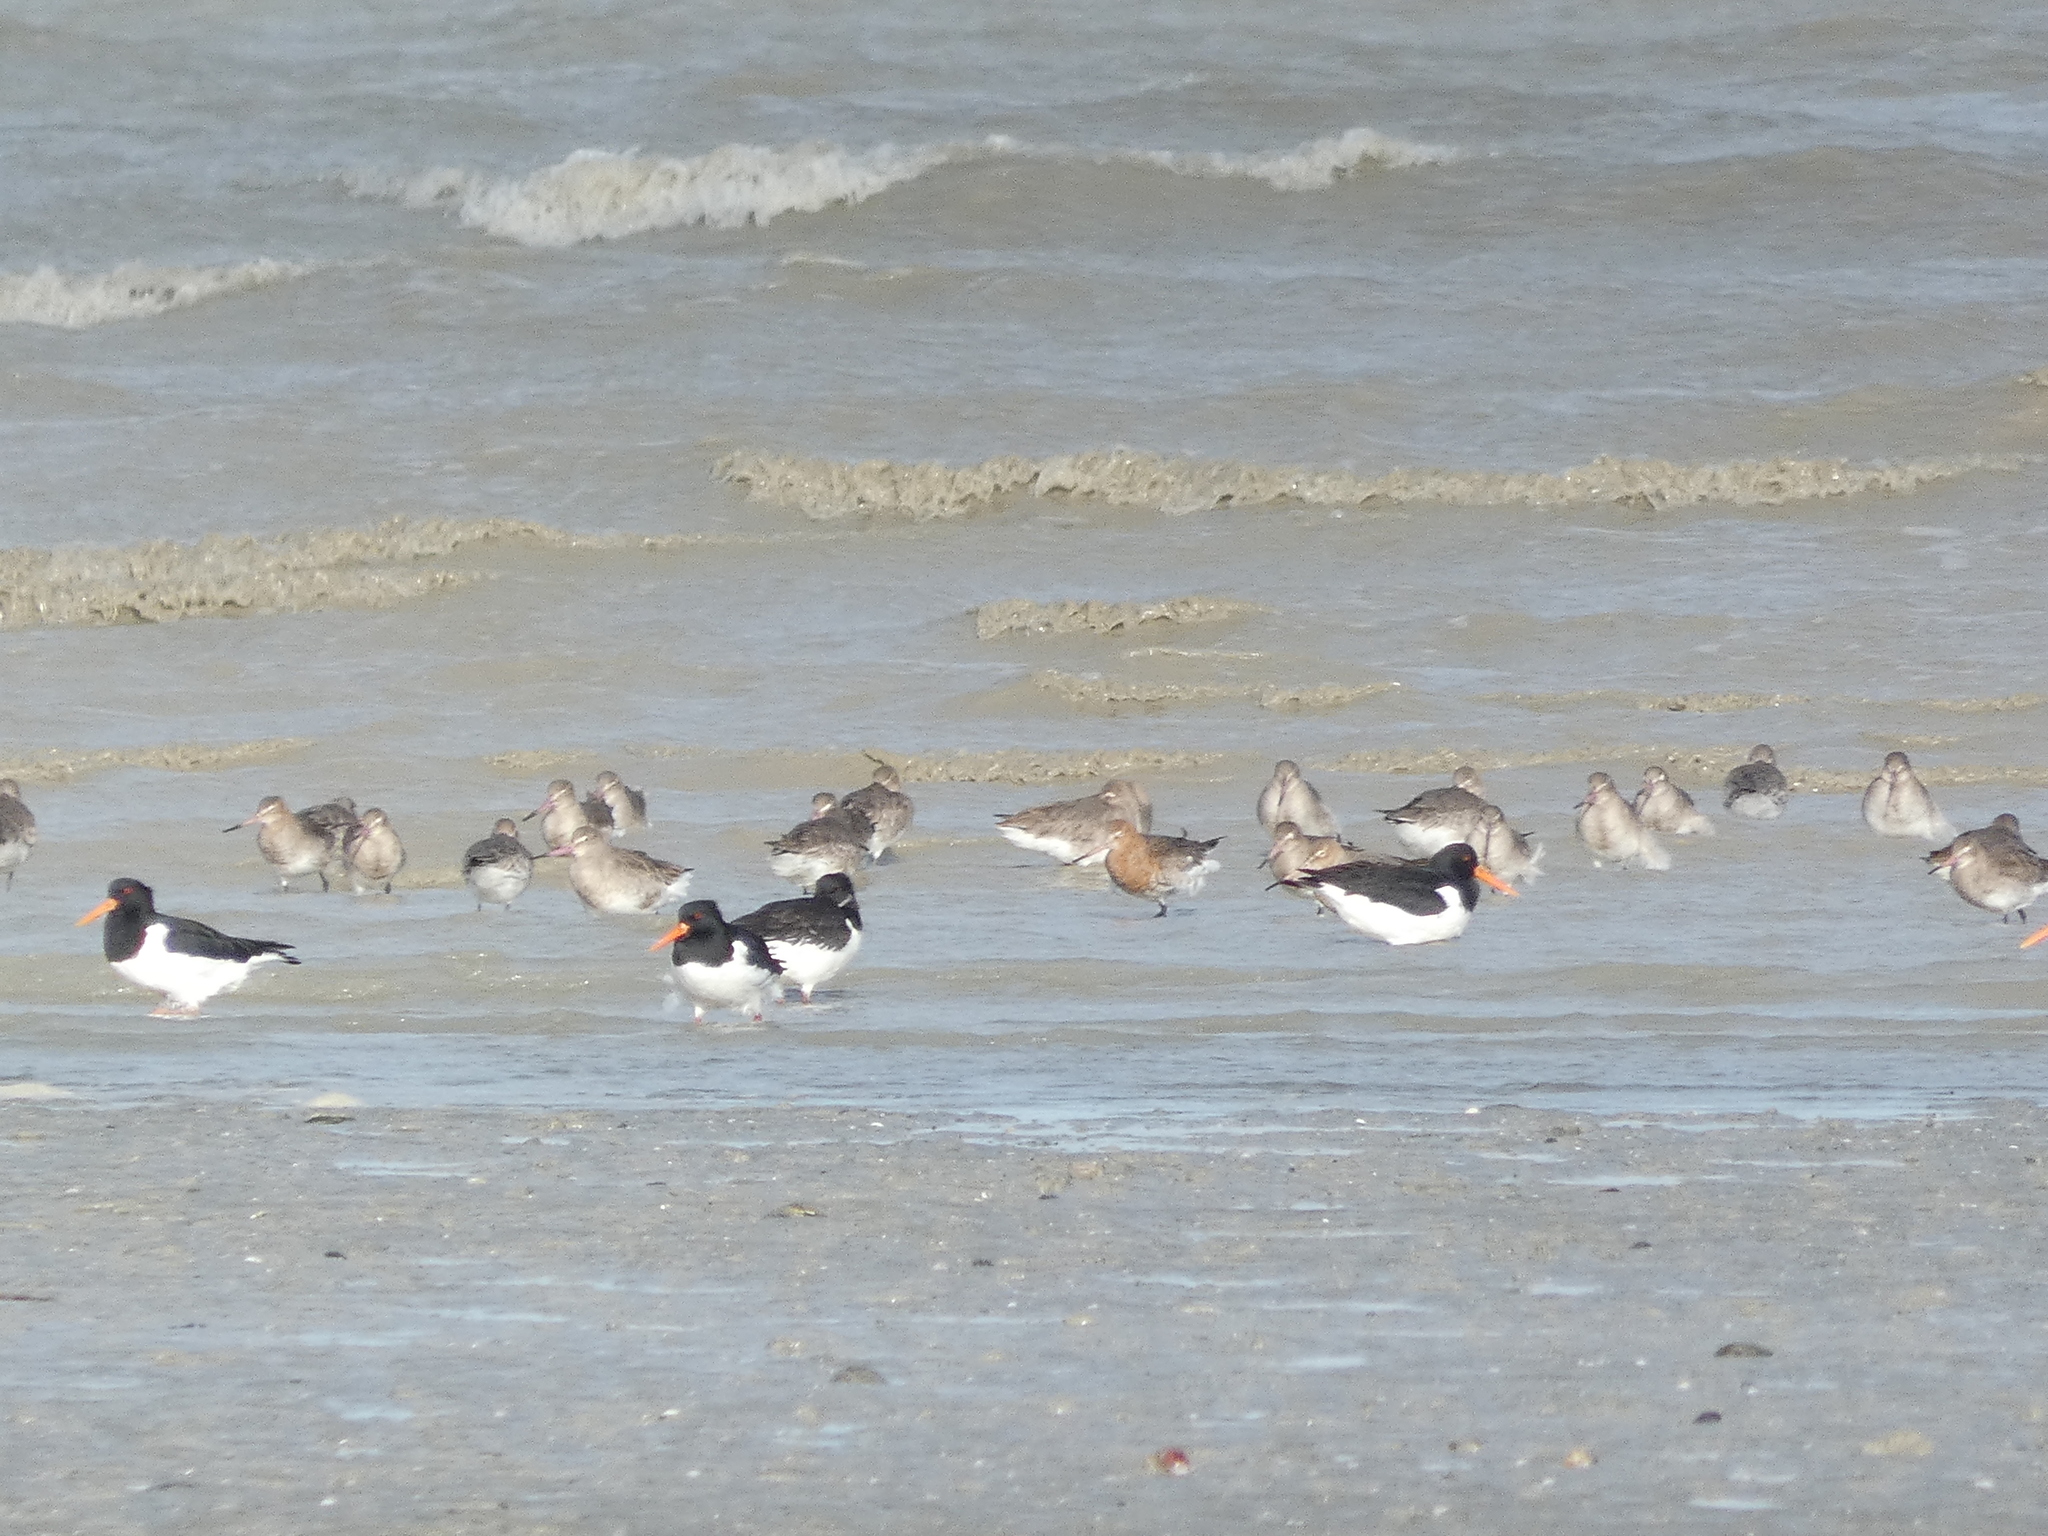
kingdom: Animalia
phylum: Chordata
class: Aves
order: Charadriiformes
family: Scolopacidae
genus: Limosa
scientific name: Limosa limosa
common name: Black-tailed godwit
